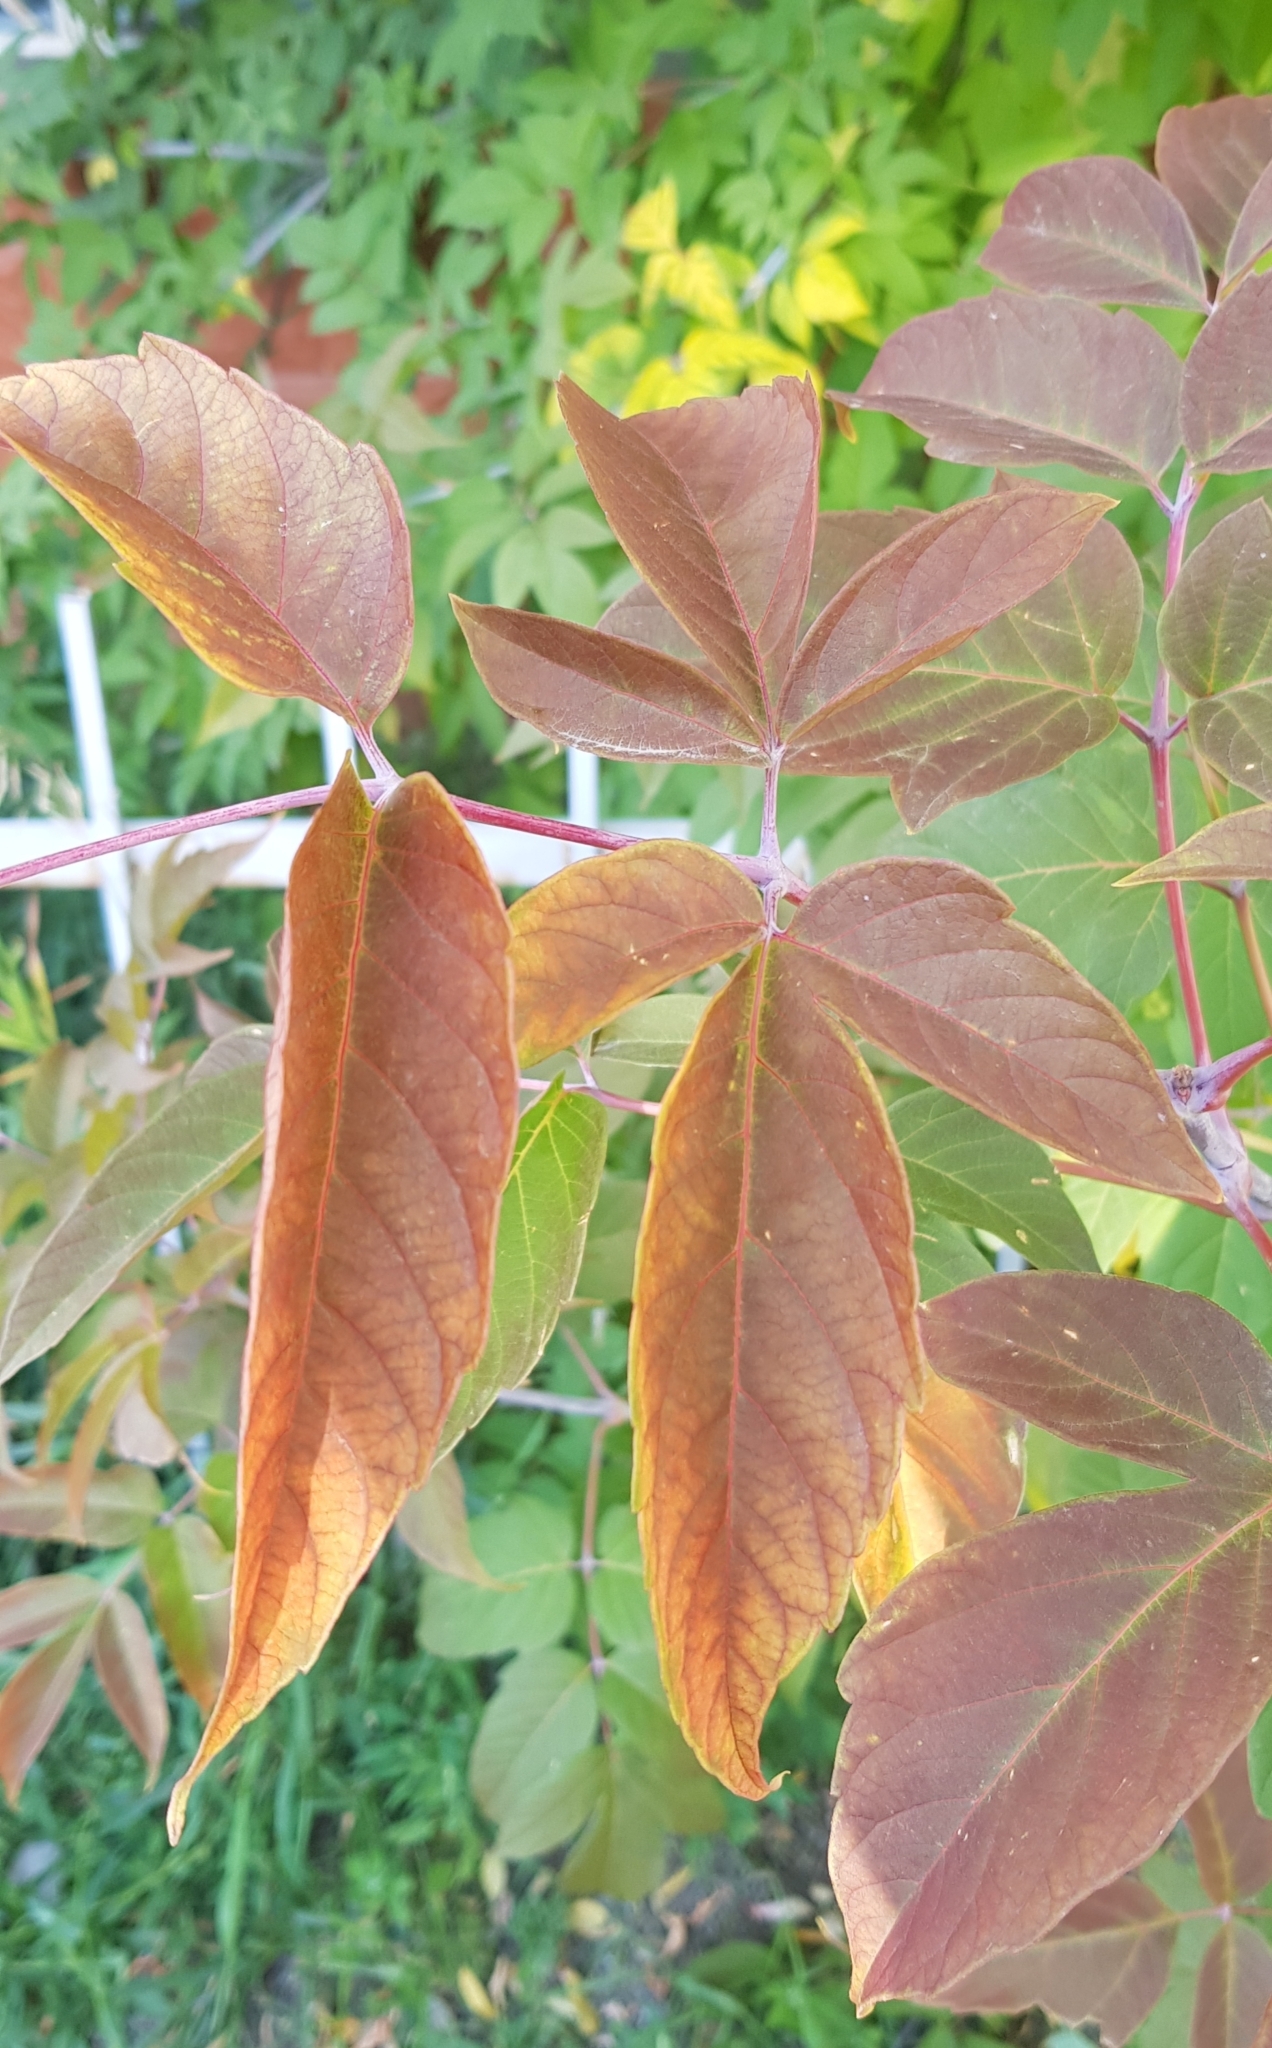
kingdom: Plantae
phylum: Tracheophyta
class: Magnoliopsida
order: Sapindales
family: Sapindaceae
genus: Acer
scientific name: Acer negundo
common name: Ashleaf maple
